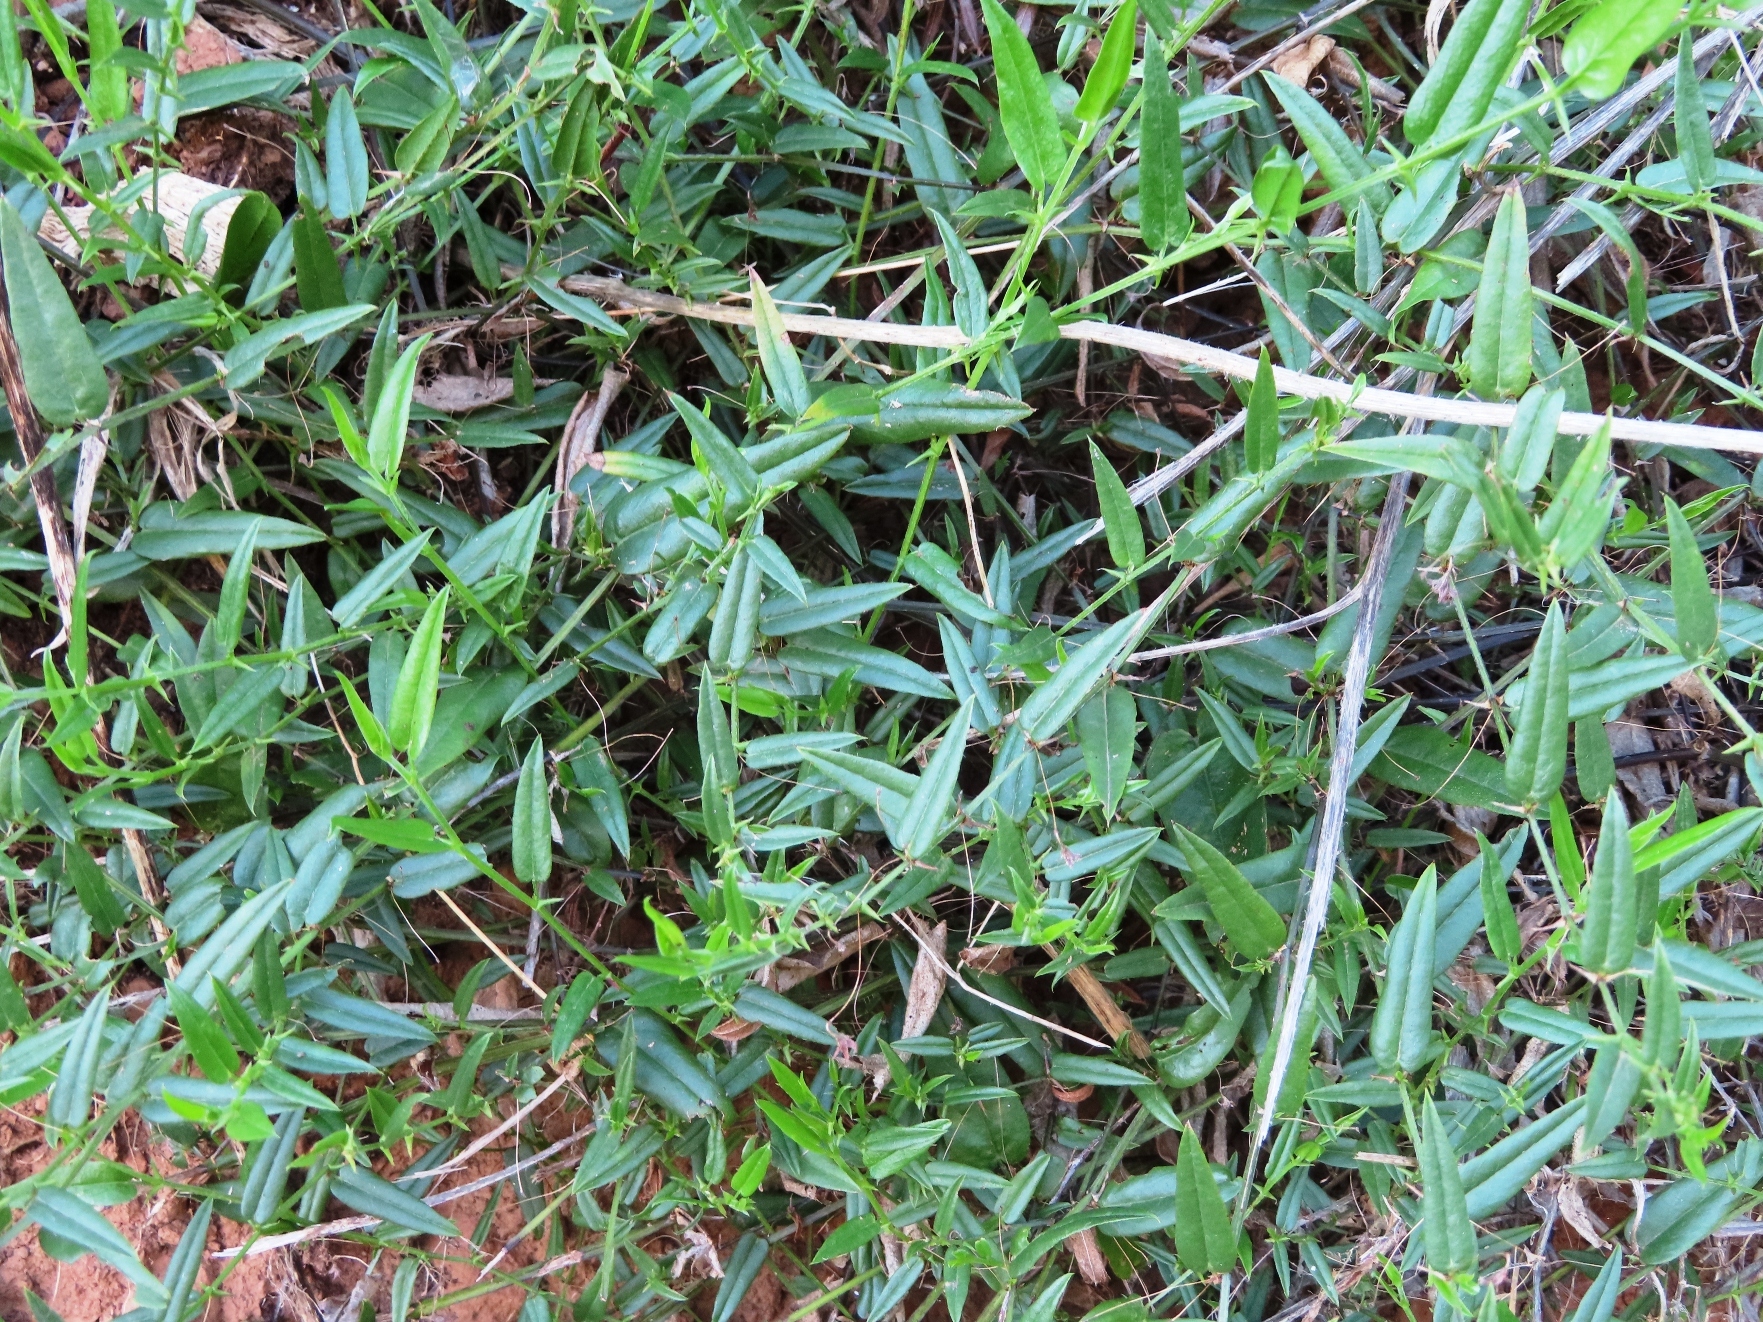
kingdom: Plantae
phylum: Tracheophyta
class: Magnoliopsida
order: Fabales
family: Fabaceae
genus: Psoralea
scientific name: Psoralea asarina
